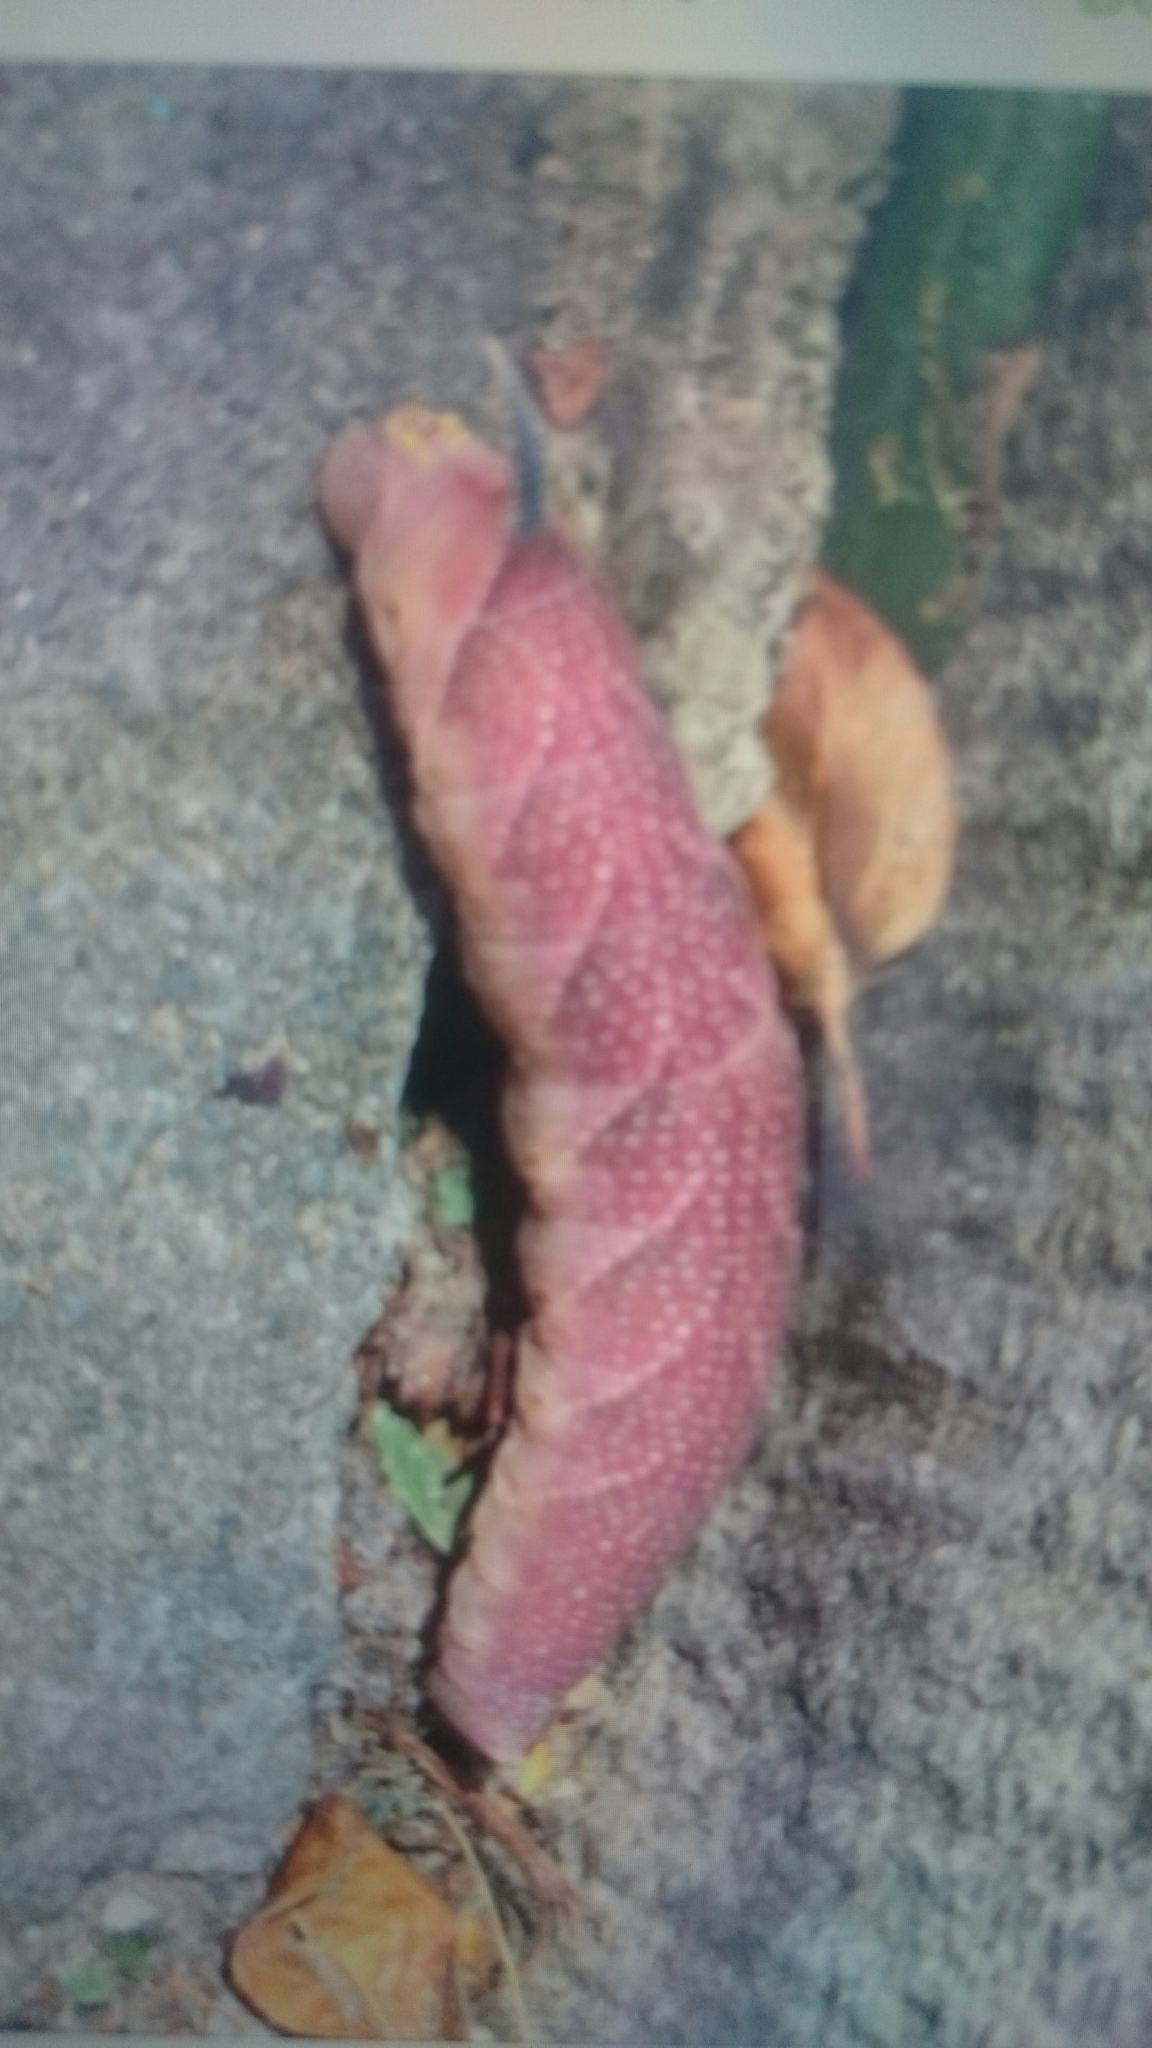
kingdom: Animalia
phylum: Arthropoda
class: Insecta
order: Lepidoptera
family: Sphingidae
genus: Mimas
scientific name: Mimas tiliae
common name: Lime hawk-moth
